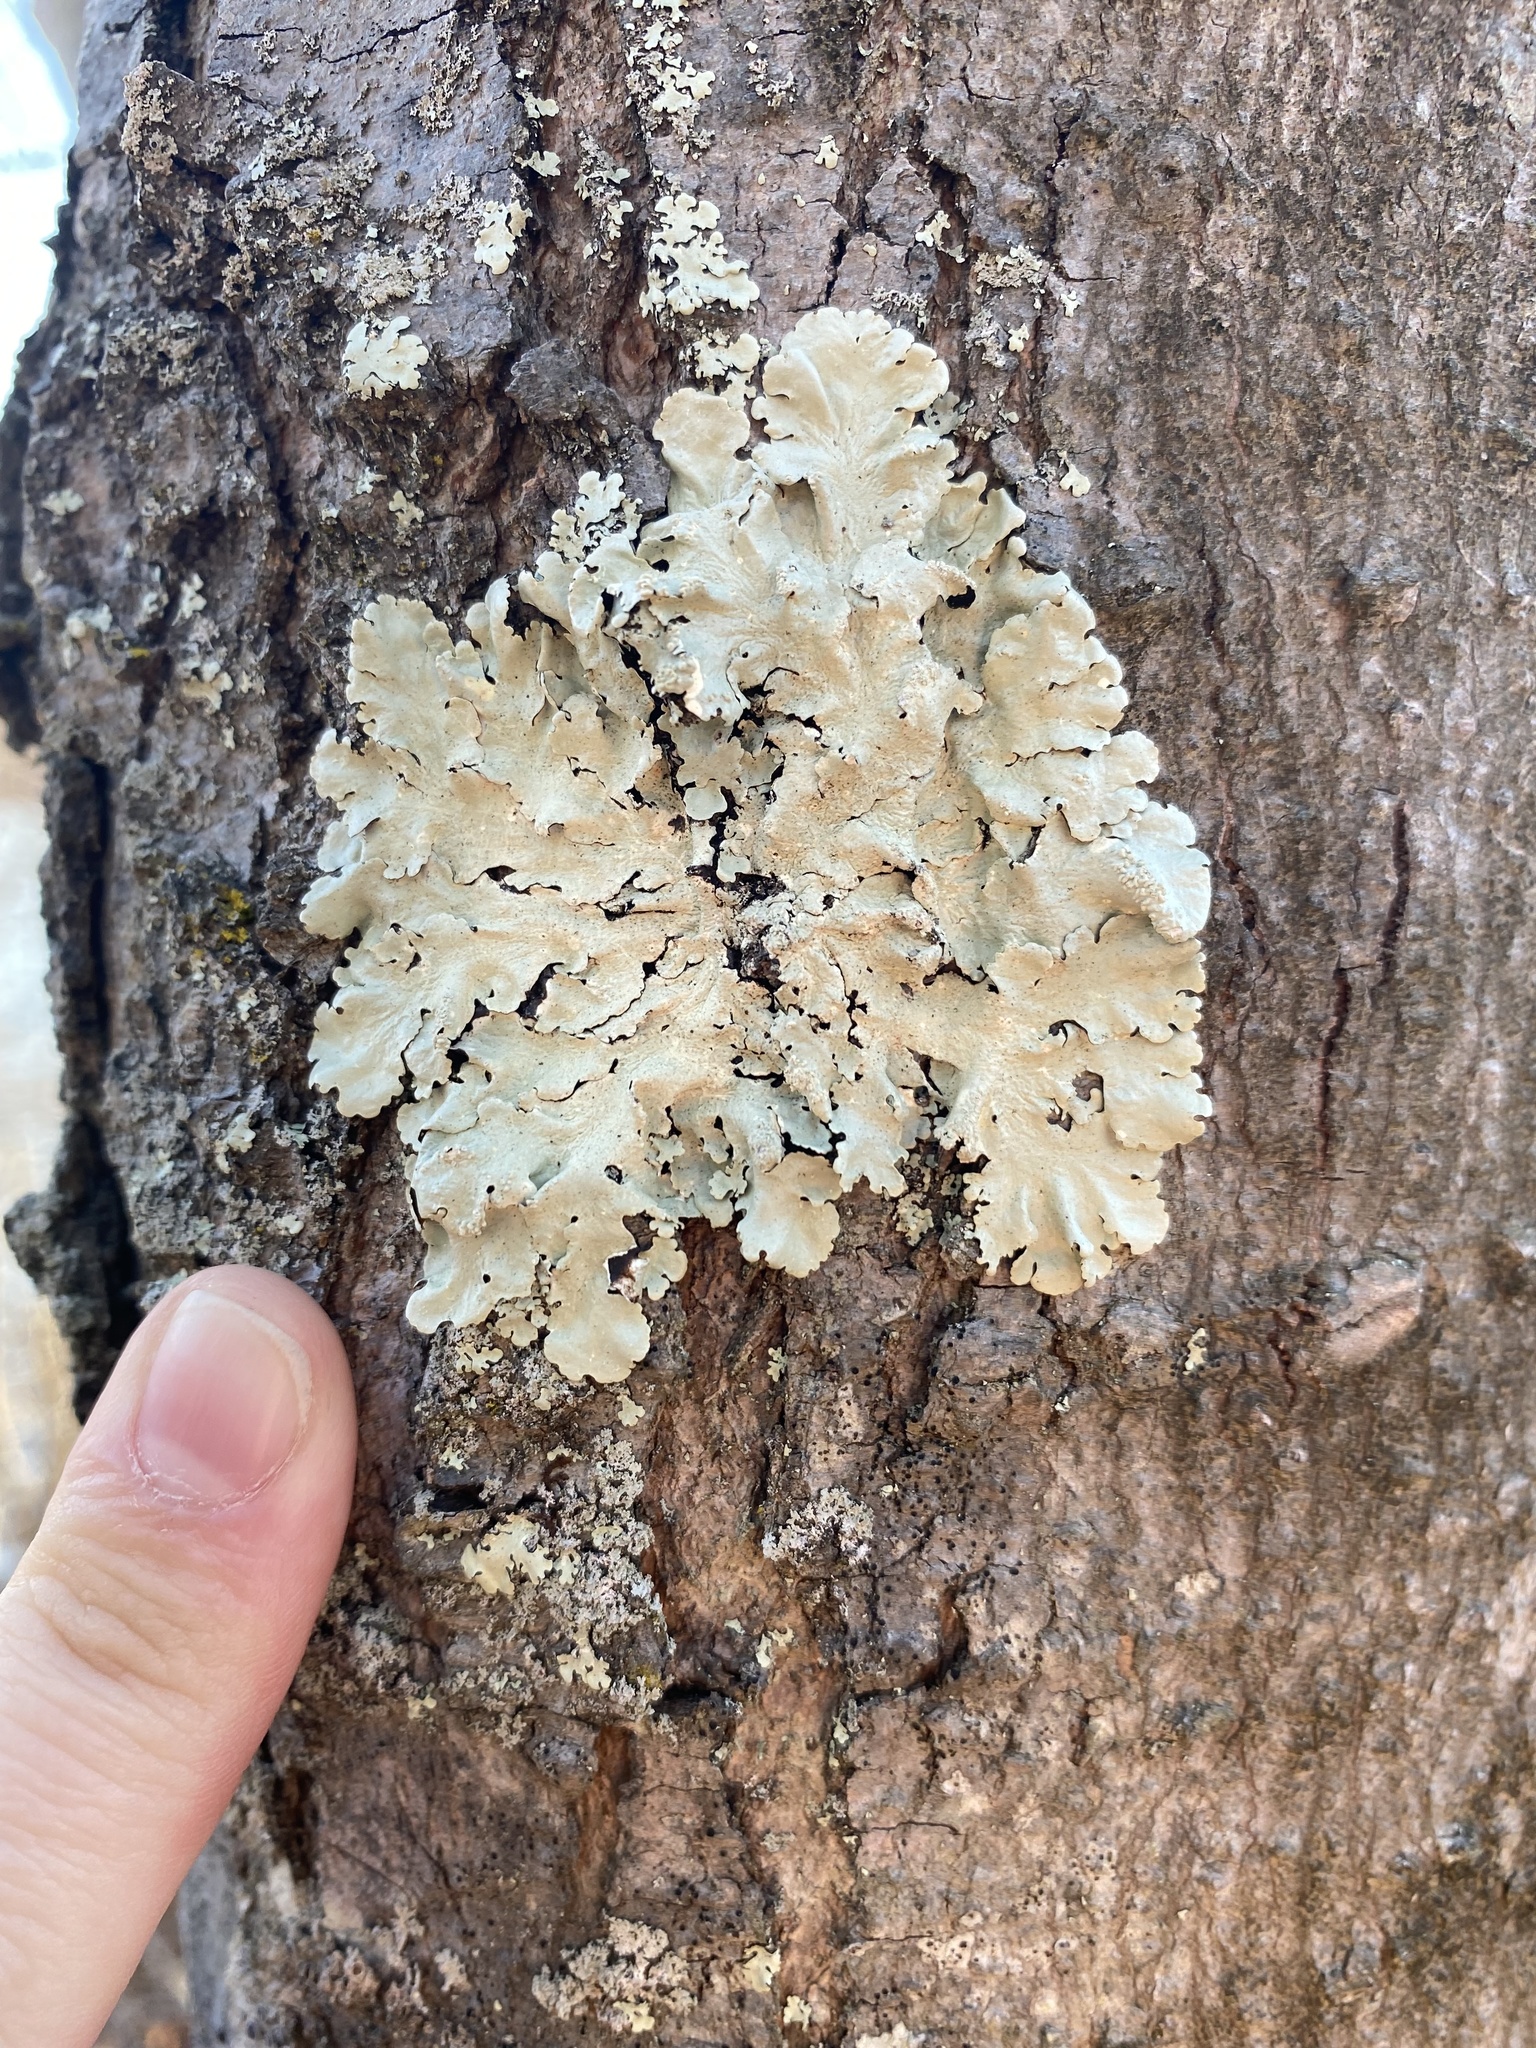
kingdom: Fungi
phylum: Ascomycota
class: Lecanoromycetes
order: Lecanorales
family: Parmeliaceae
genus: Flavoparmelia
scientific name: Flavoparmelia caperata
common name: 40-mile per hour lichen
